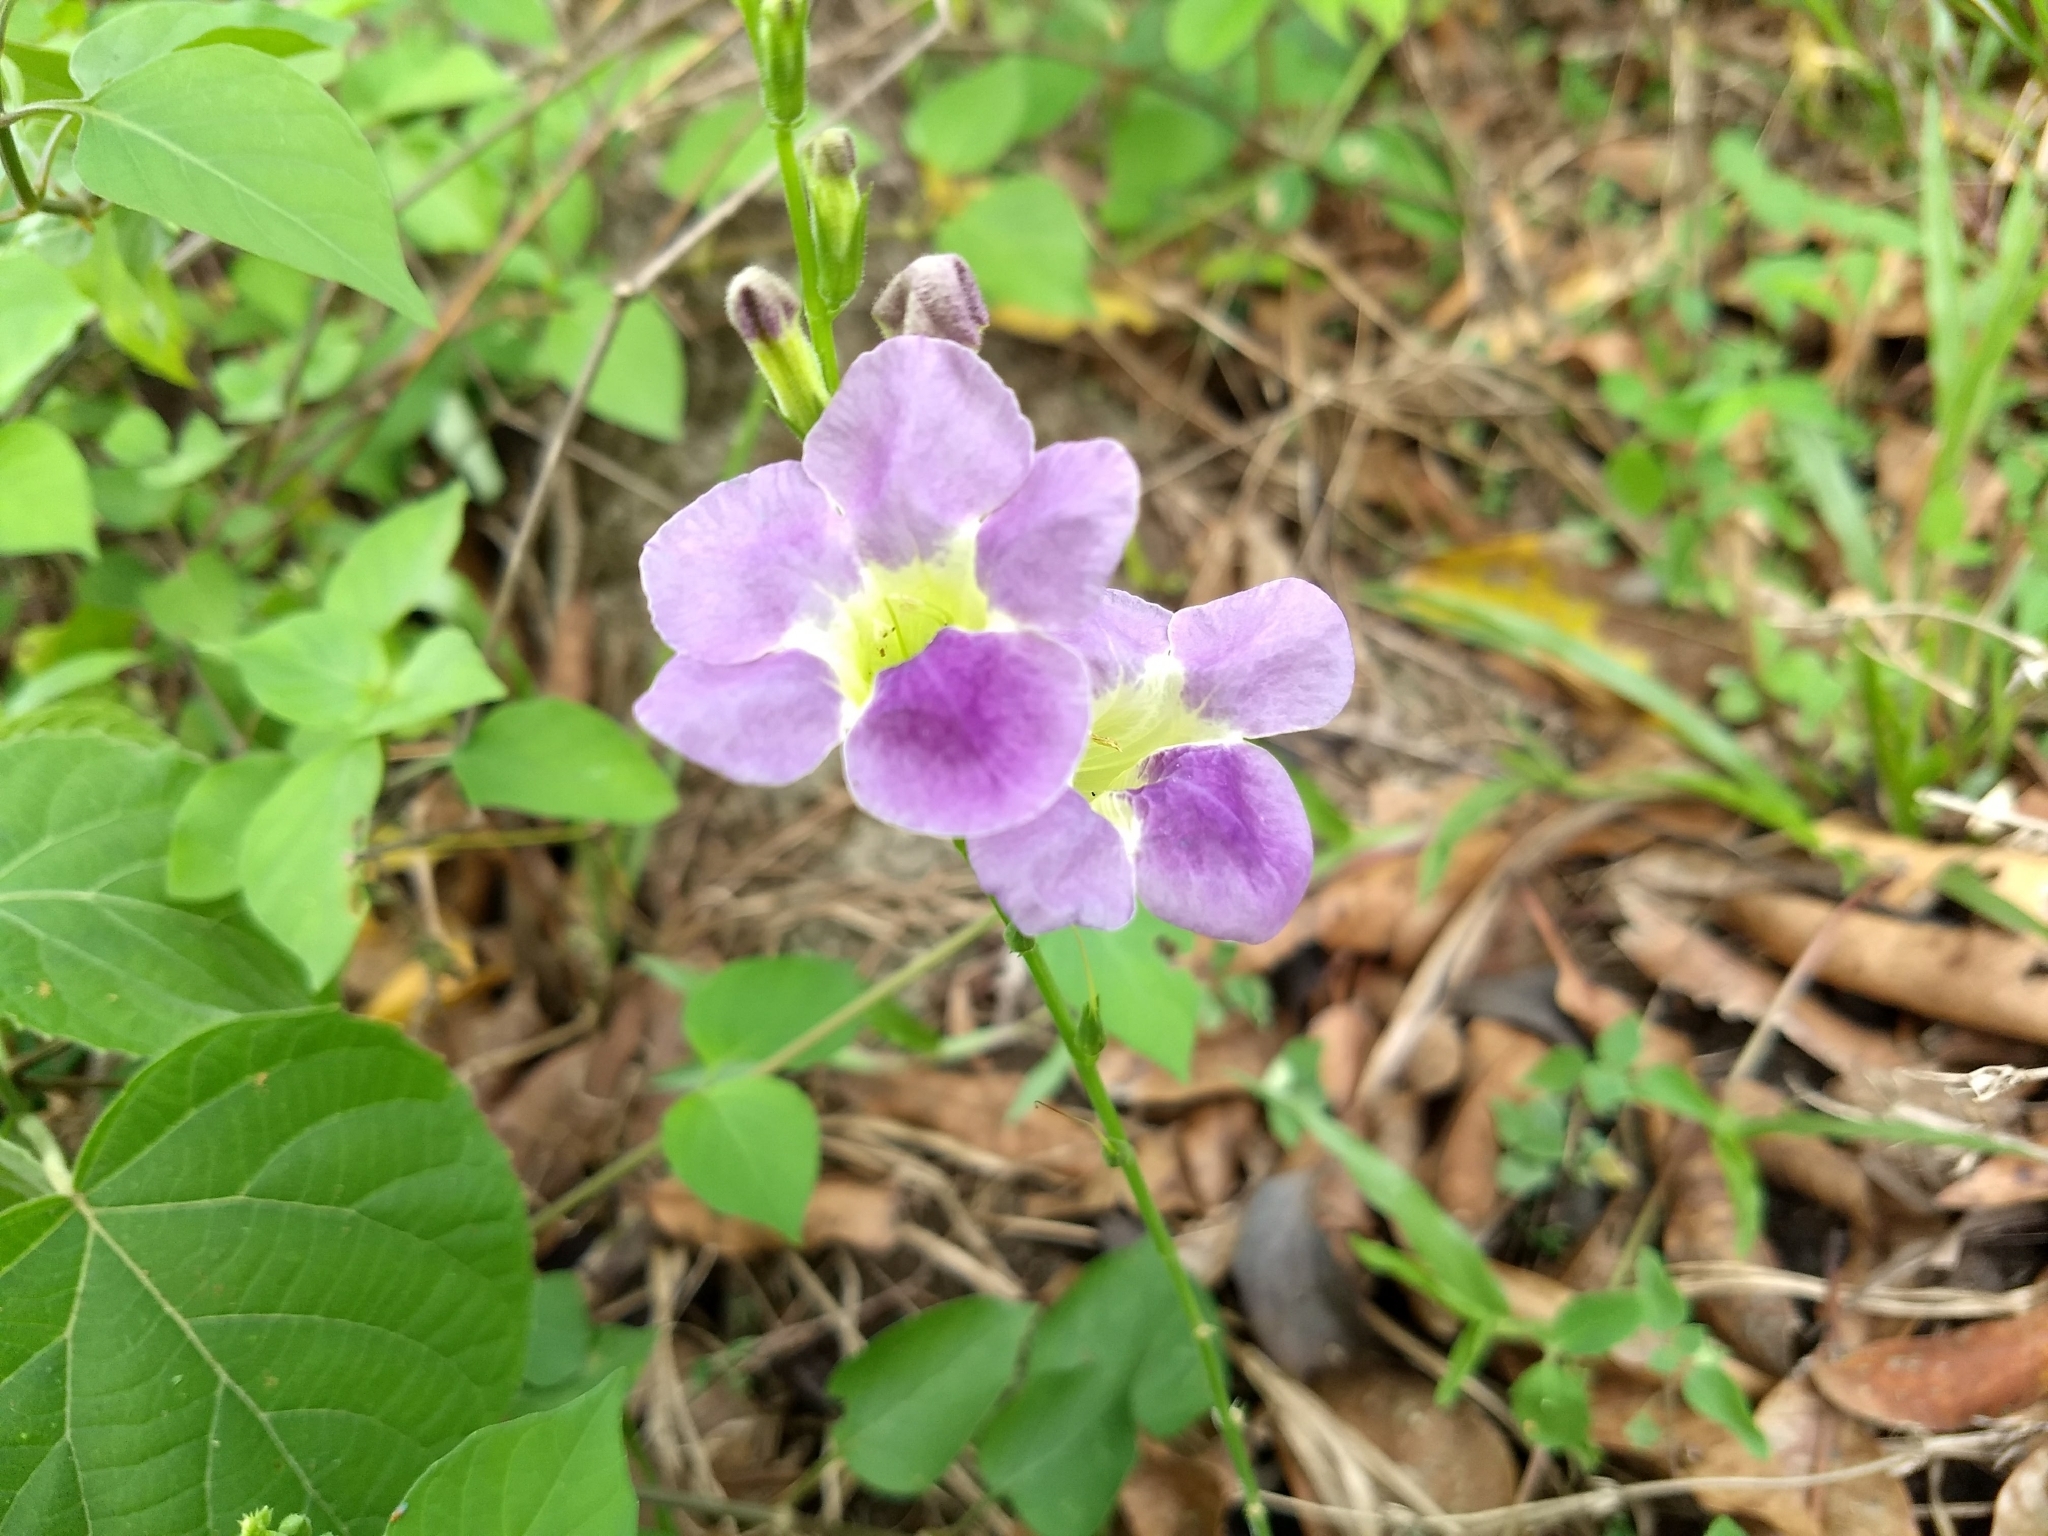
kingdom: Plantae
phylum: Tracheophyta
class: Magnoliopsida
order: Lamiales
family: Acanthaceae
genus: Asystasia
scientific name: Asystasia gangetica
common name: Chinese violet
